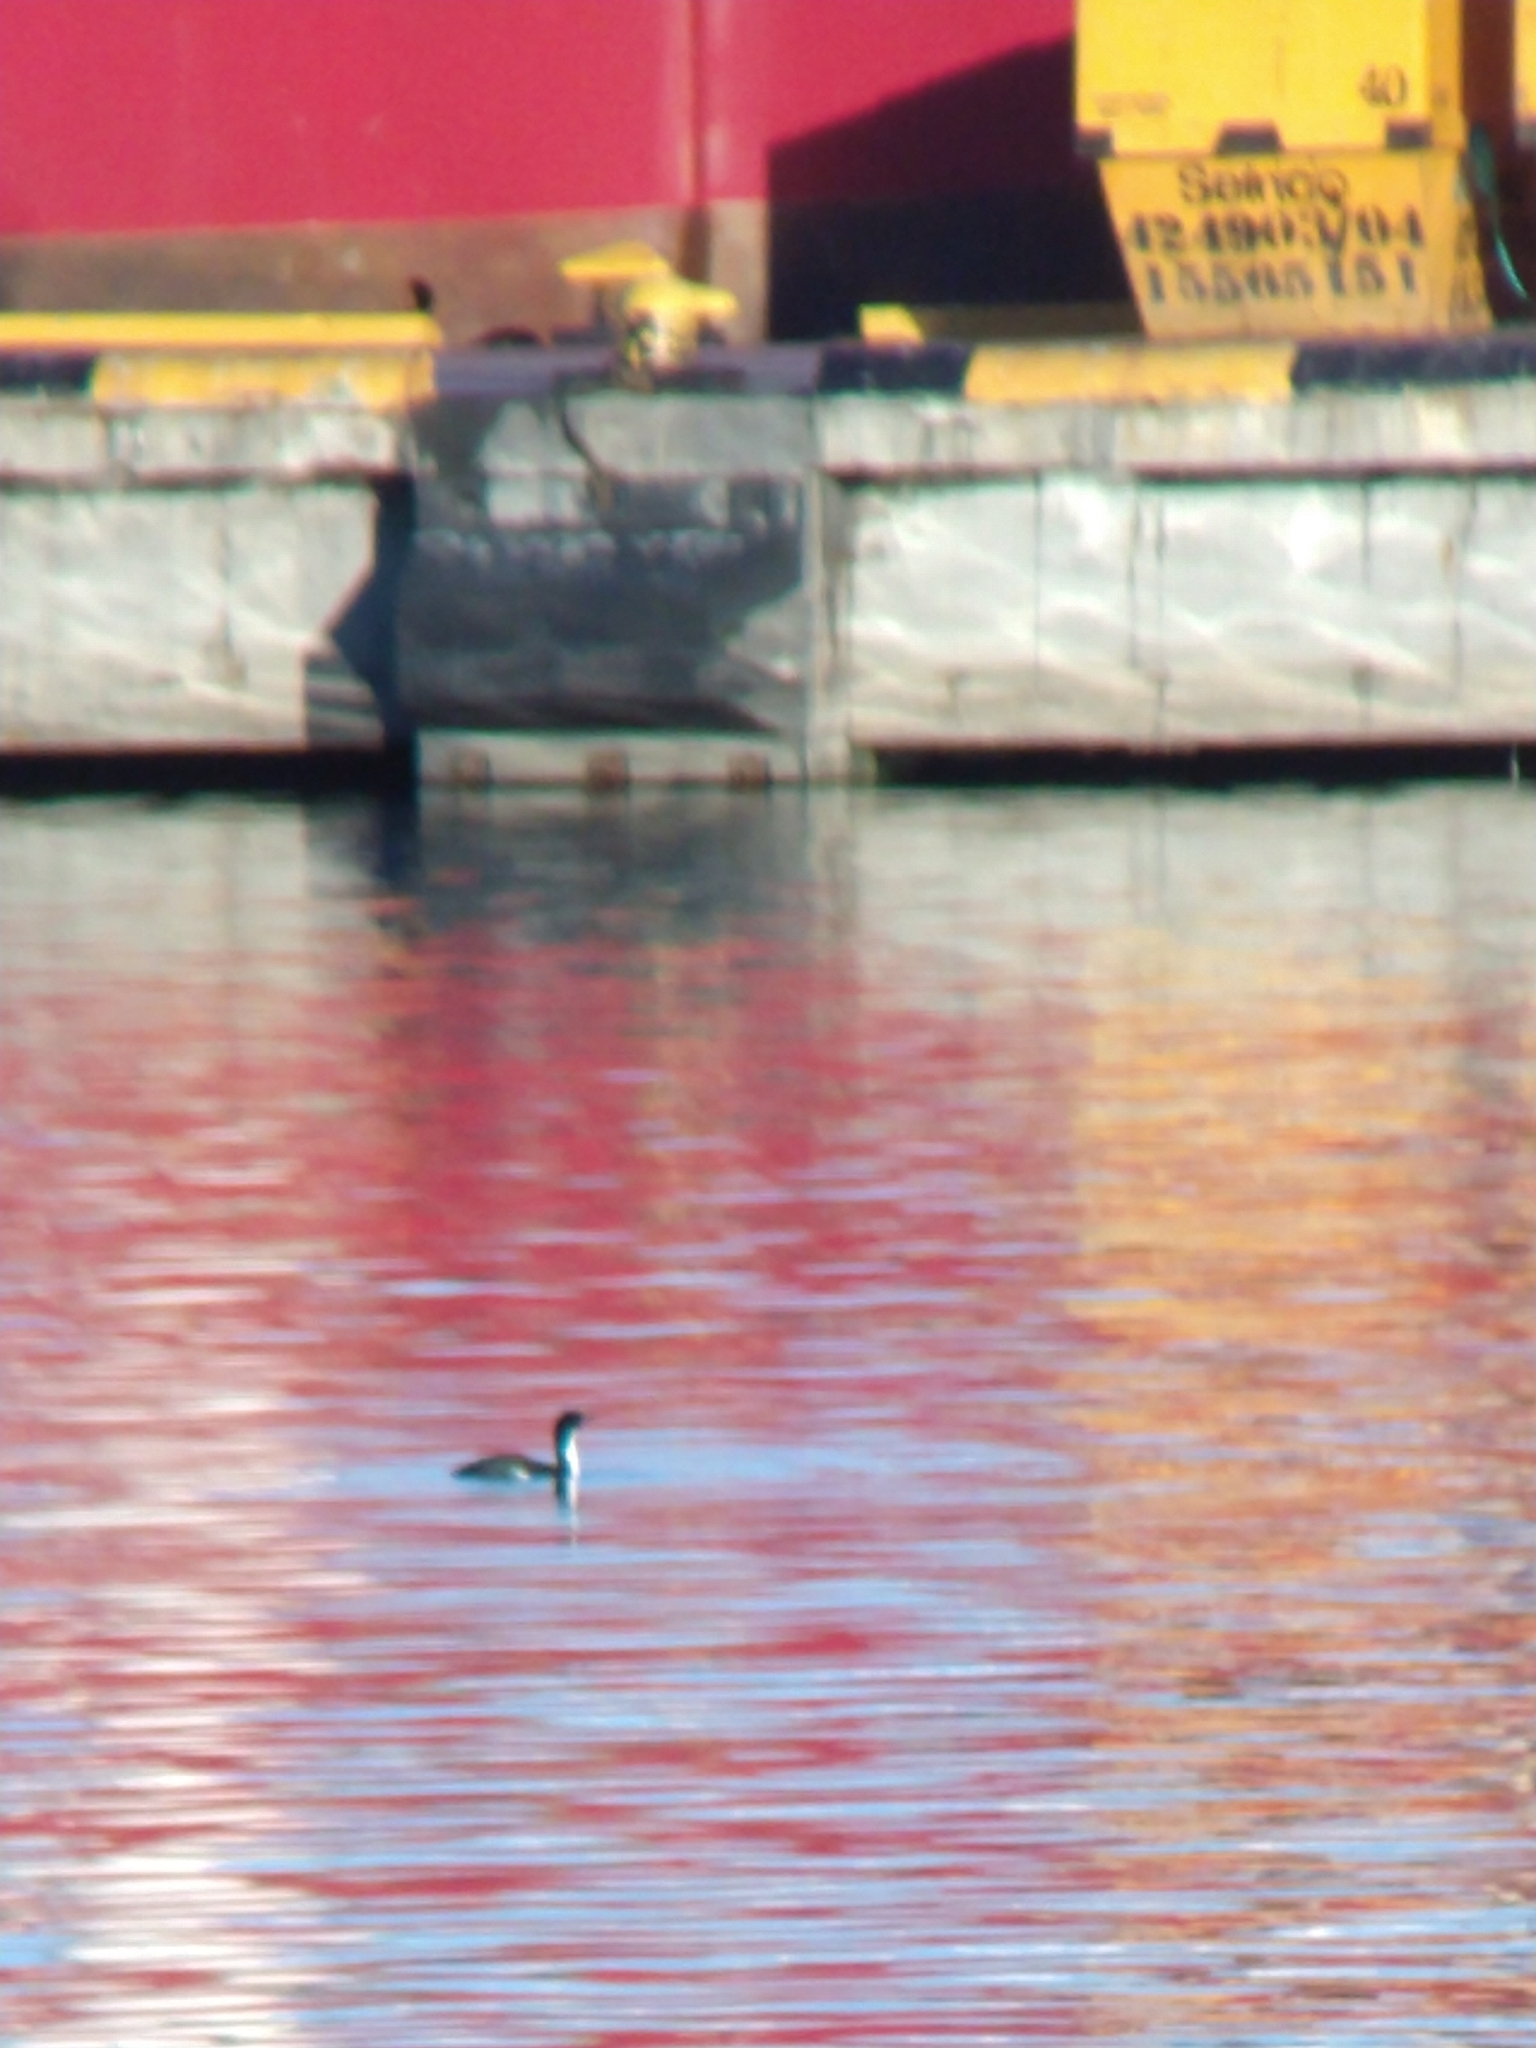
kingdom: Animalia
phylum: Chordata
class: Aves
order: Suliformes
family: Phalacrocoracidae
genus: Leucocarbo
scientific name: Leucocarbo atriceps
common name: Imperial shag
